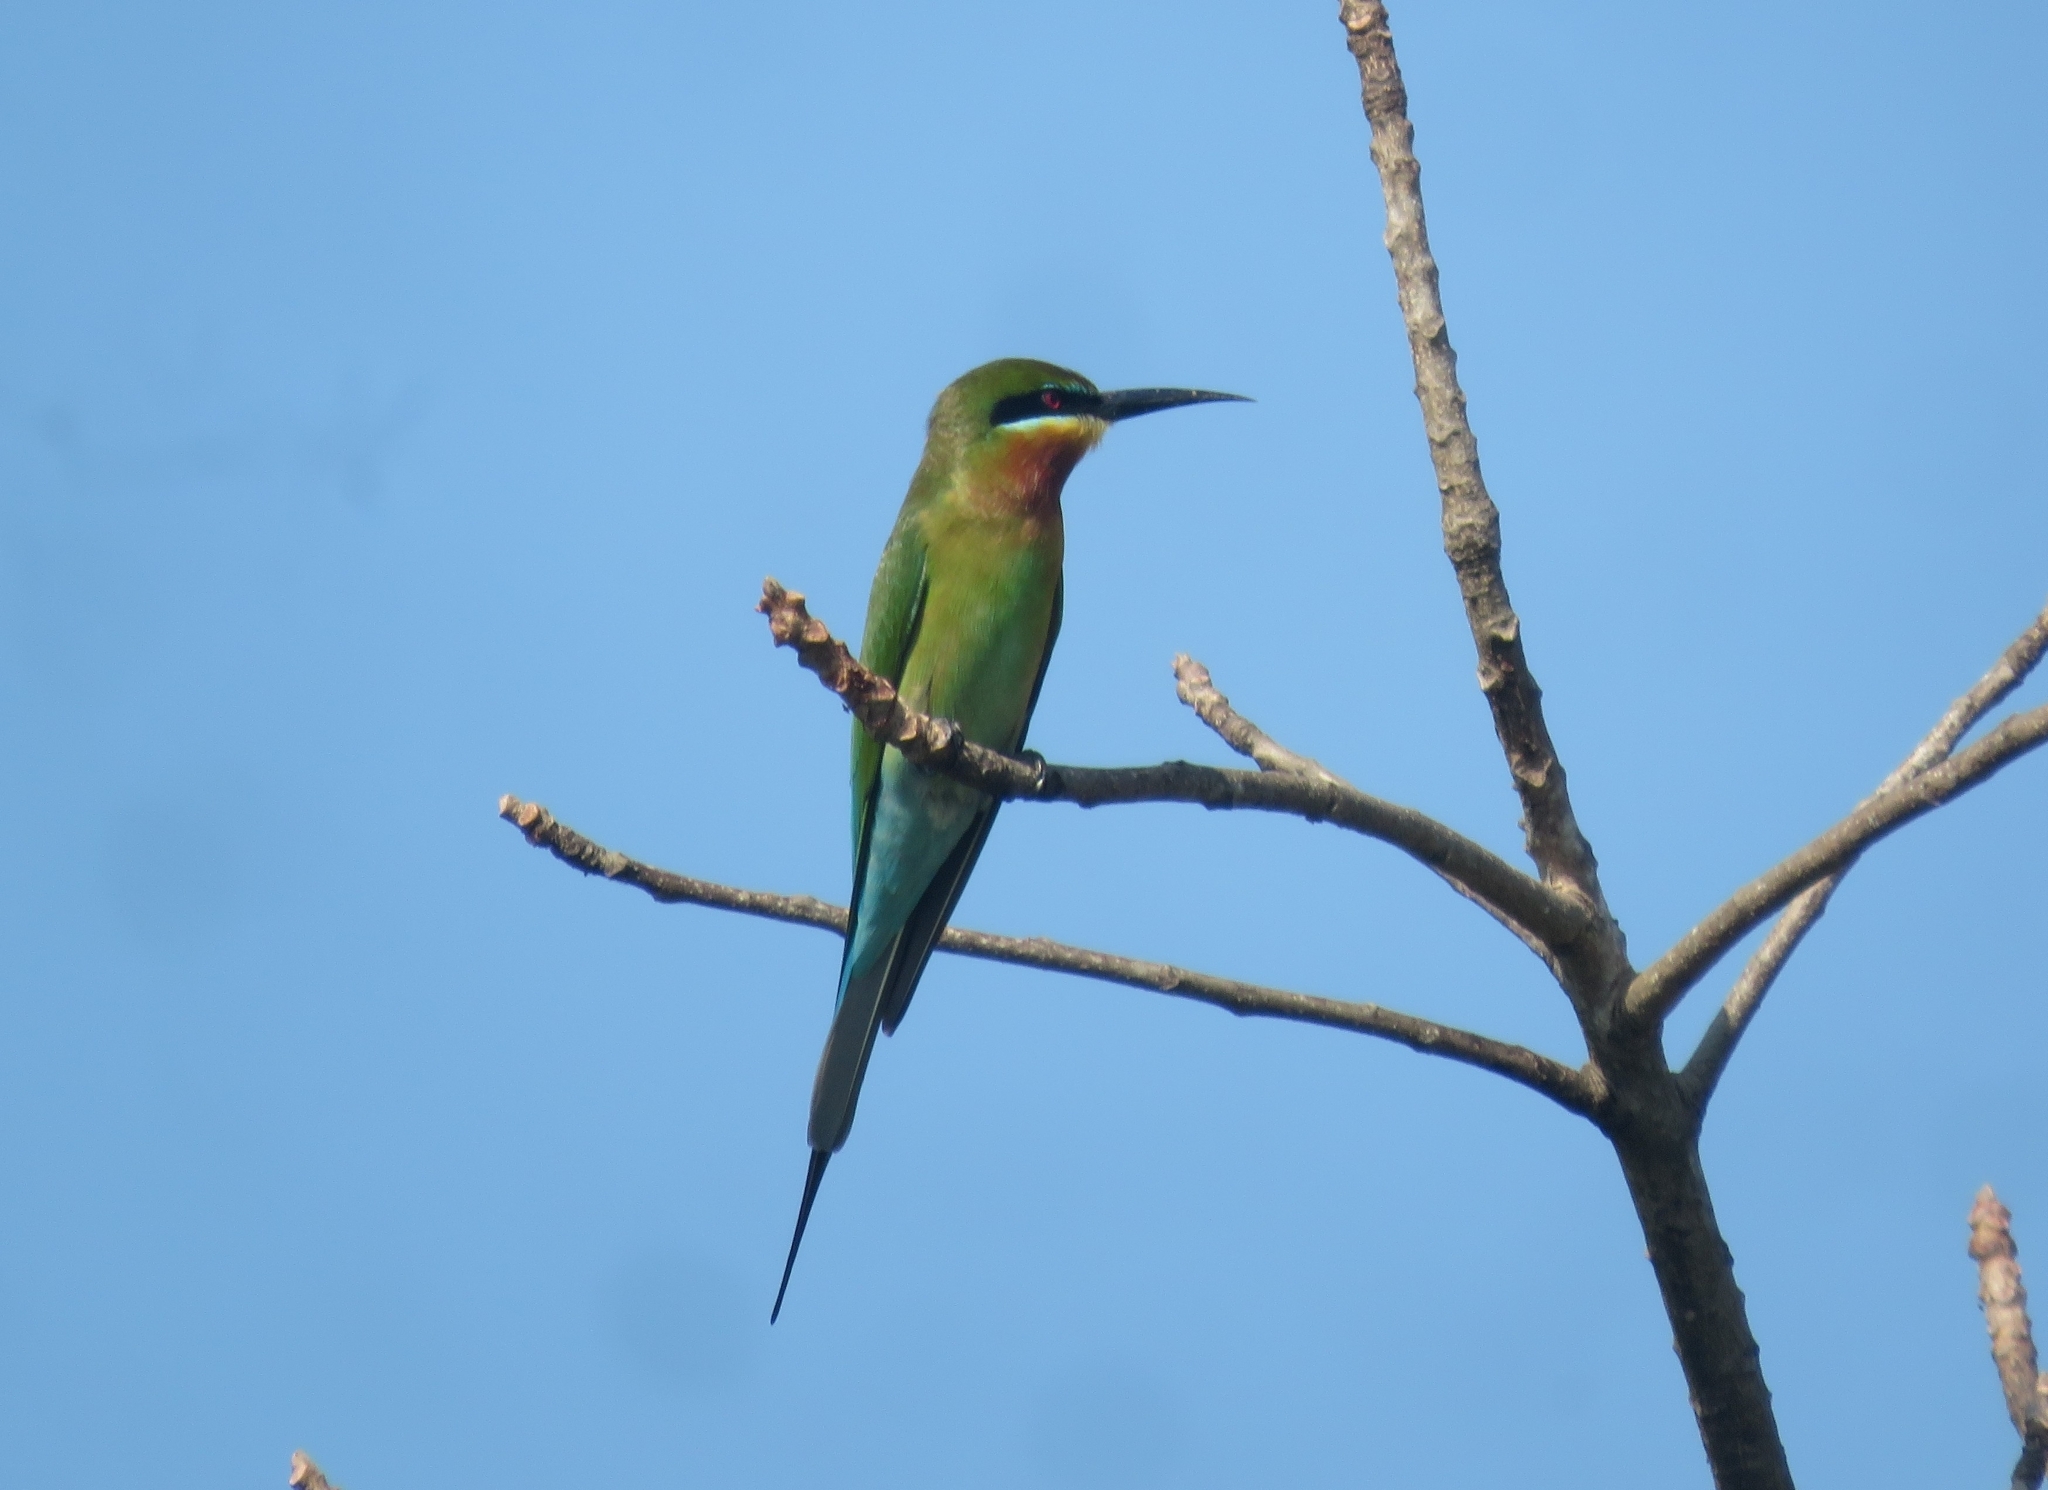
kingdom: Animalia
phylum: Chordata
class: Aves
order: Coraciiformes
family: Meropidae
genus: Merops
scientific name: Merops philippinus
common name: Blue-tailed bee-eater
